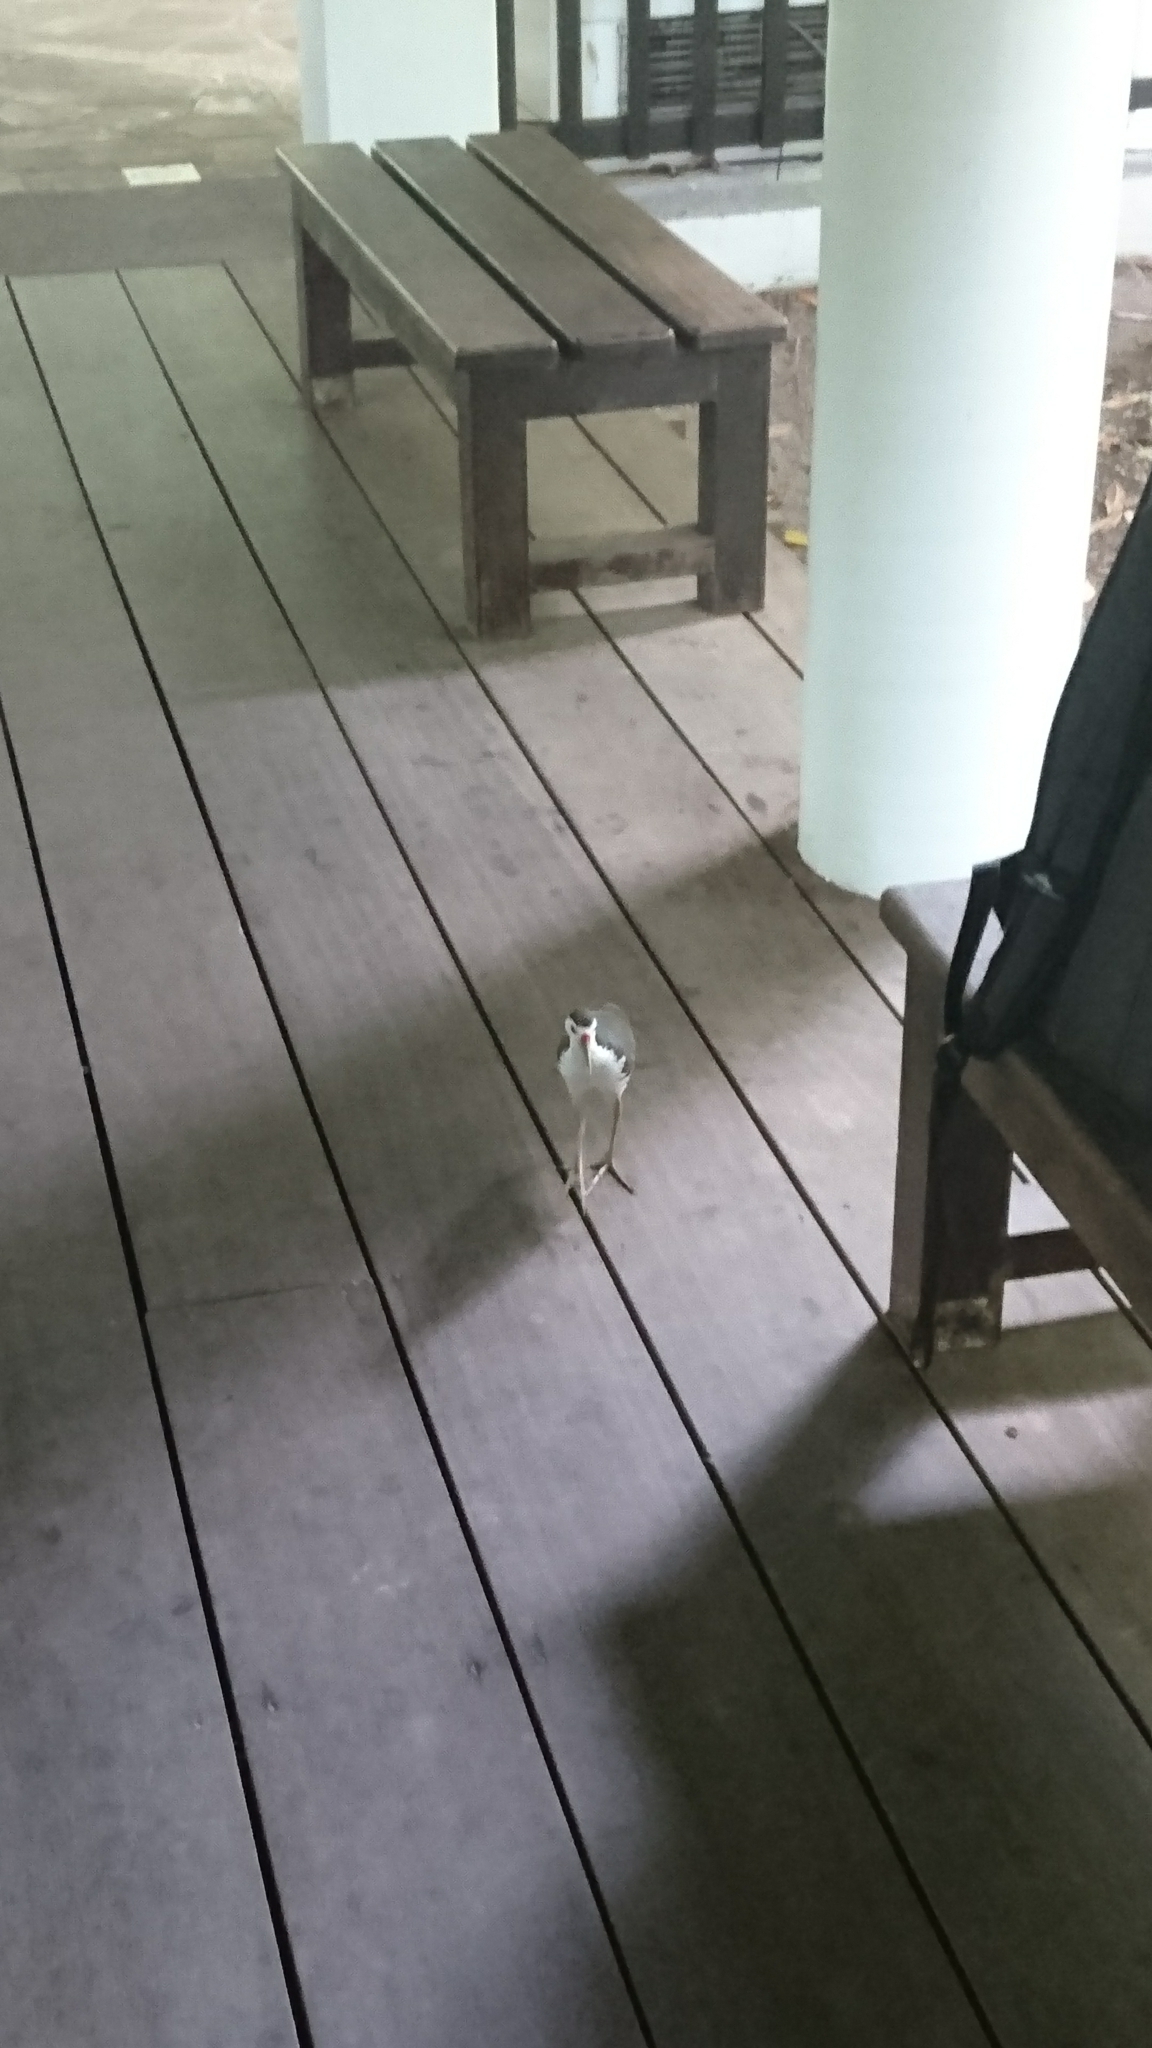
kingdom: Animalia
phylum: Chordata
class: Aves
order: Gruiformes
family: Rallidae
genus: Amaurornis
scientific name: Amaurornis phoenicurus
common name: White-breasted waterhen
